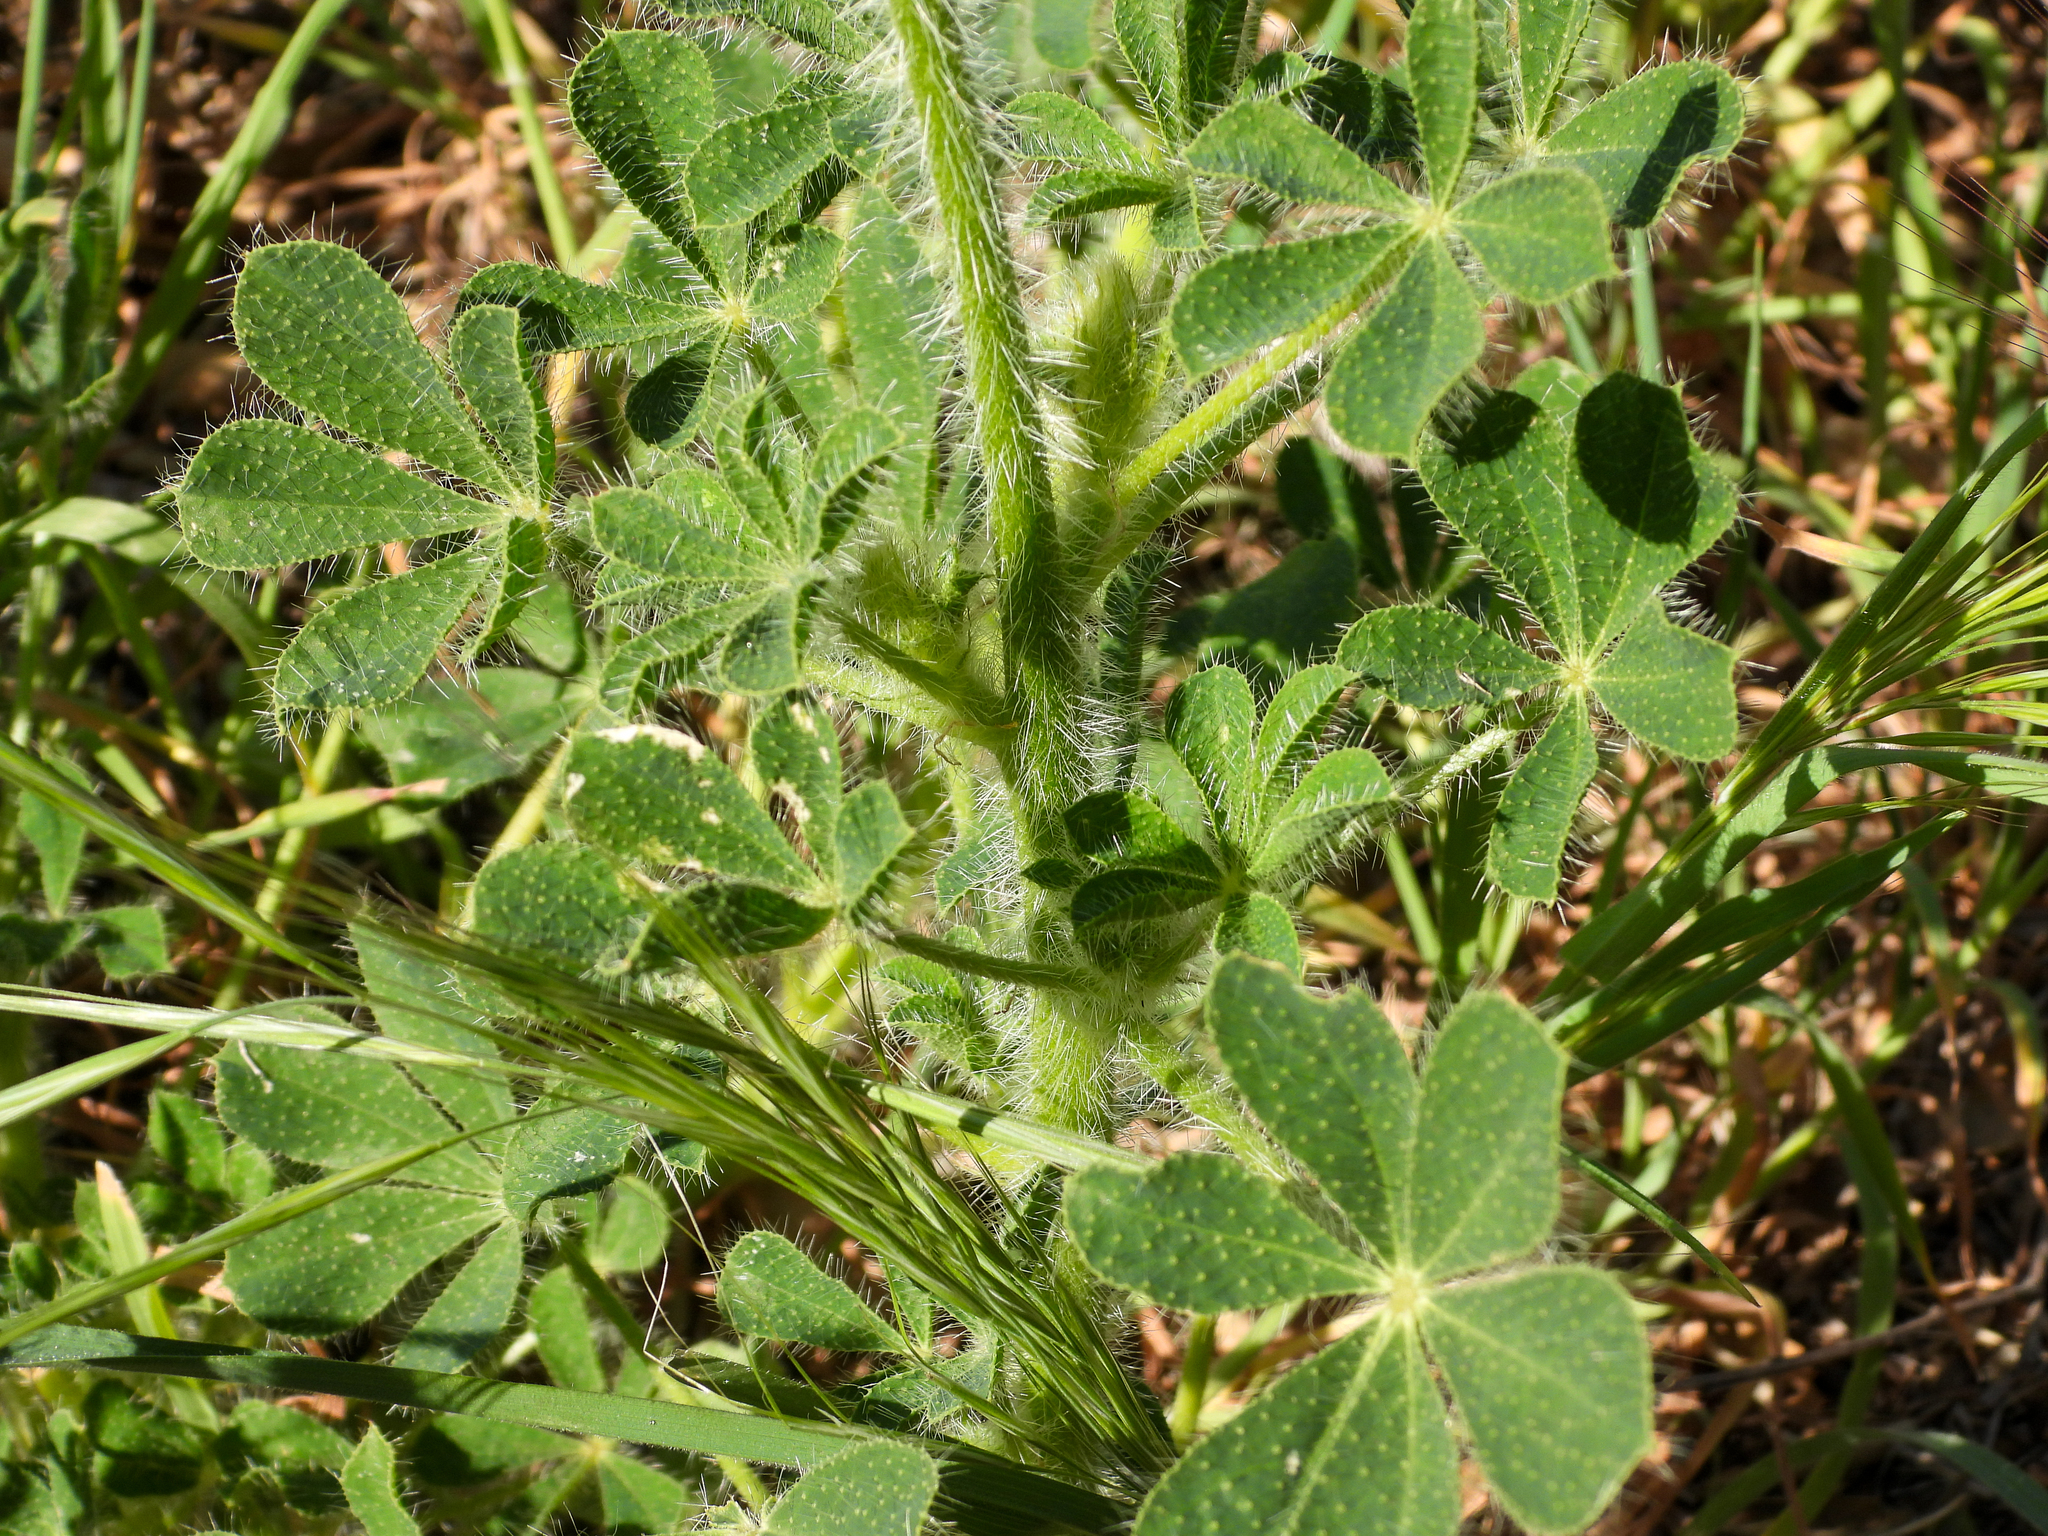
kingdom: Plantae
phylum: Tracheophyta
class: Magnoliopsida
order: Fabales
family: Fabaceae
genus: Lupinus
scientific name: Lupinus hirsutissimus
